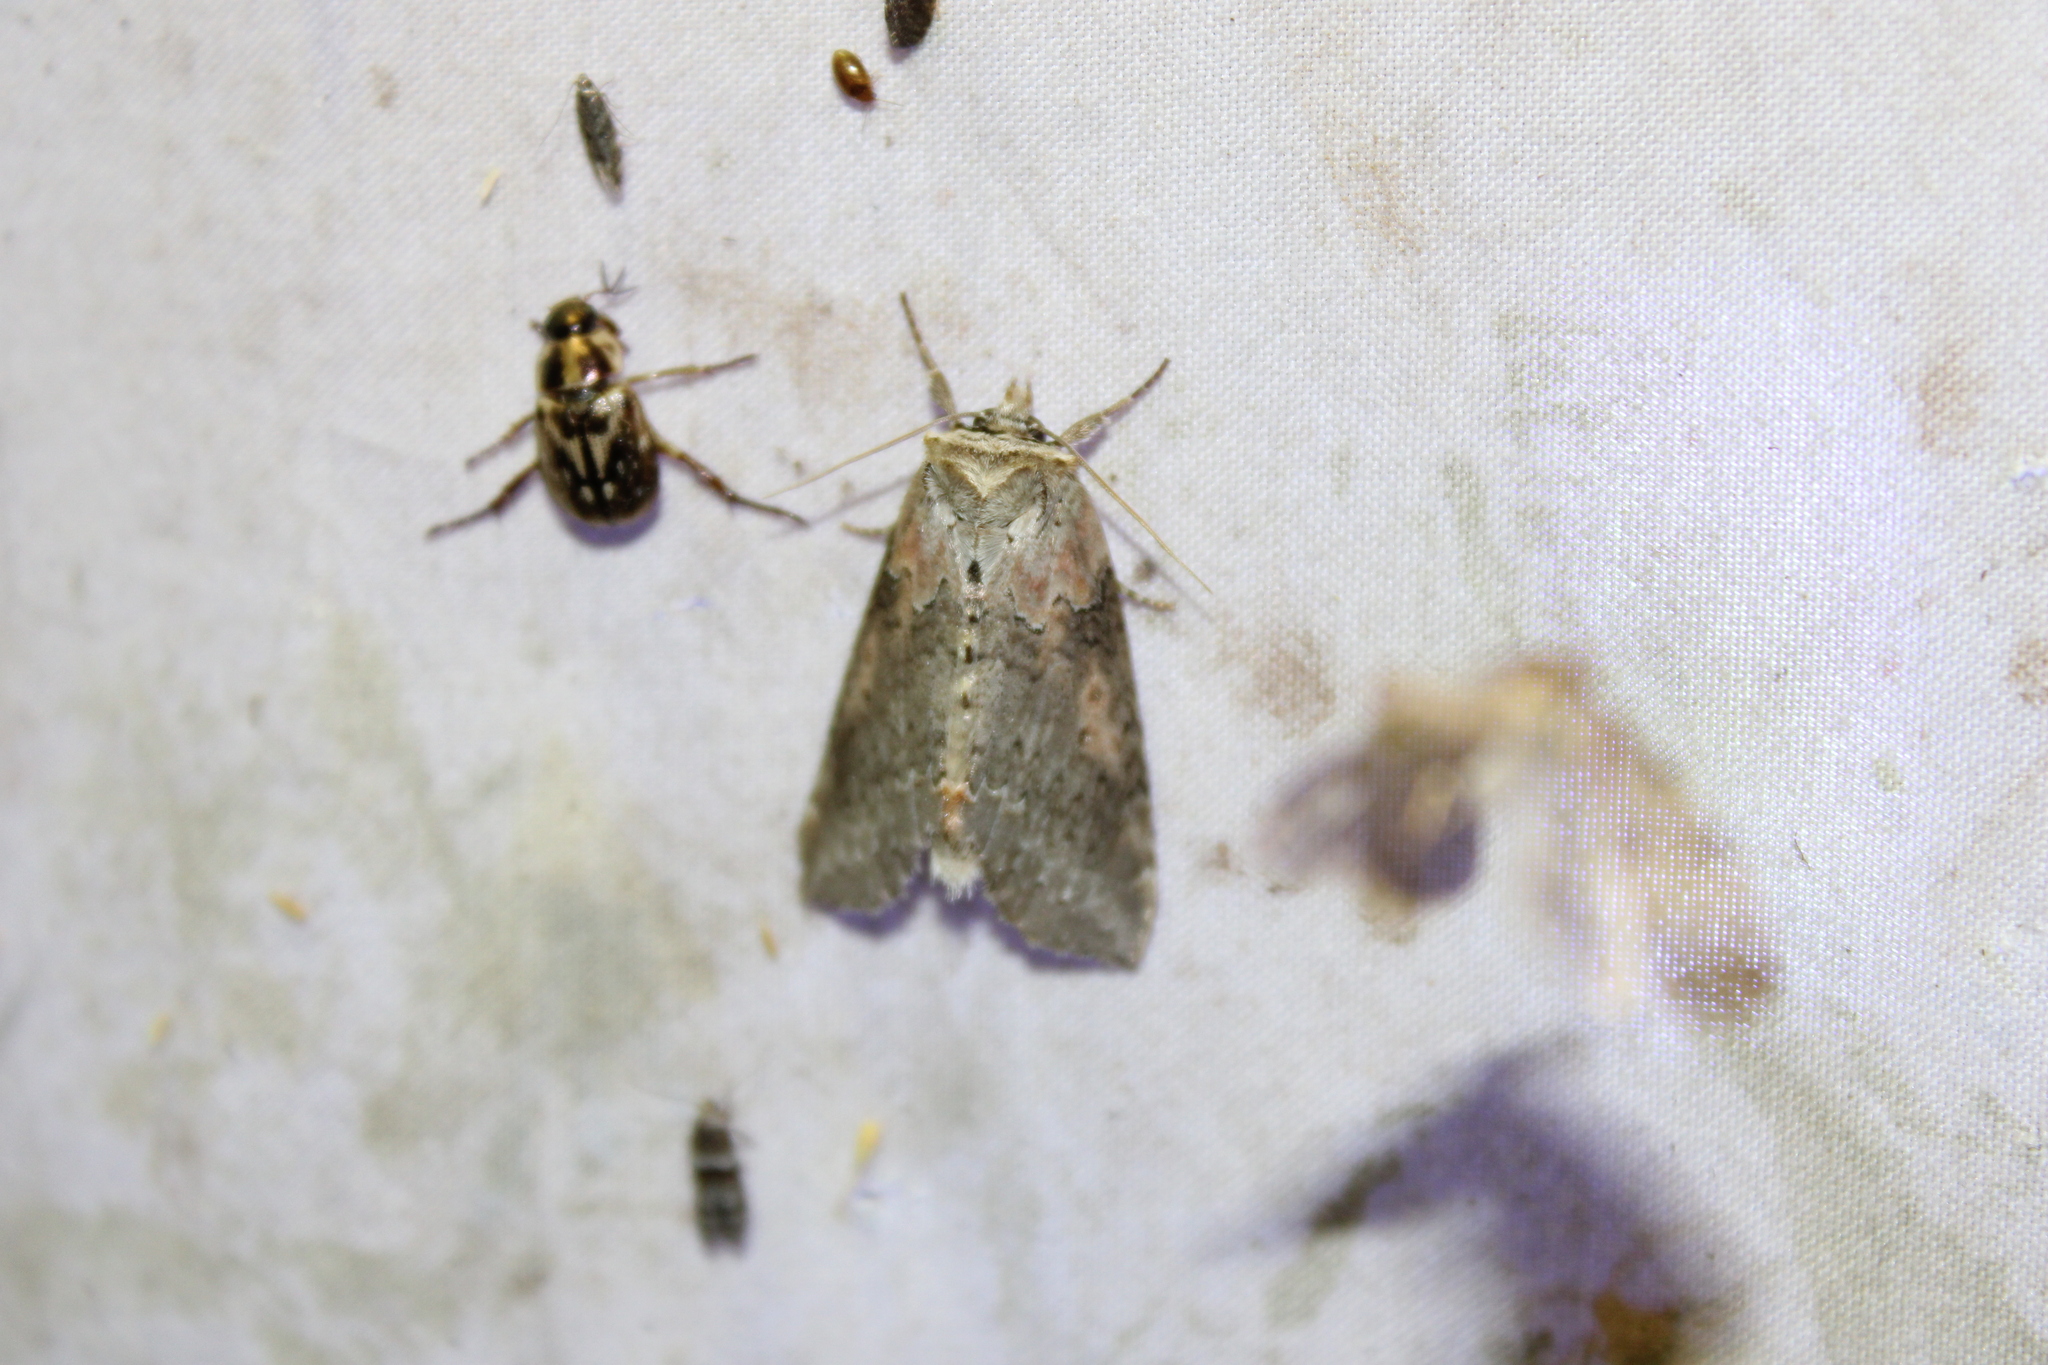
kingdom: Animalia
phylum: Arthropoda
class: Insecta
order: Lepidoptera
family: Drepanidae
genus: Pseudothyatira
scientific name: Pseudothyatira cymatophoroides
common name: Tufted thyatirid moth
